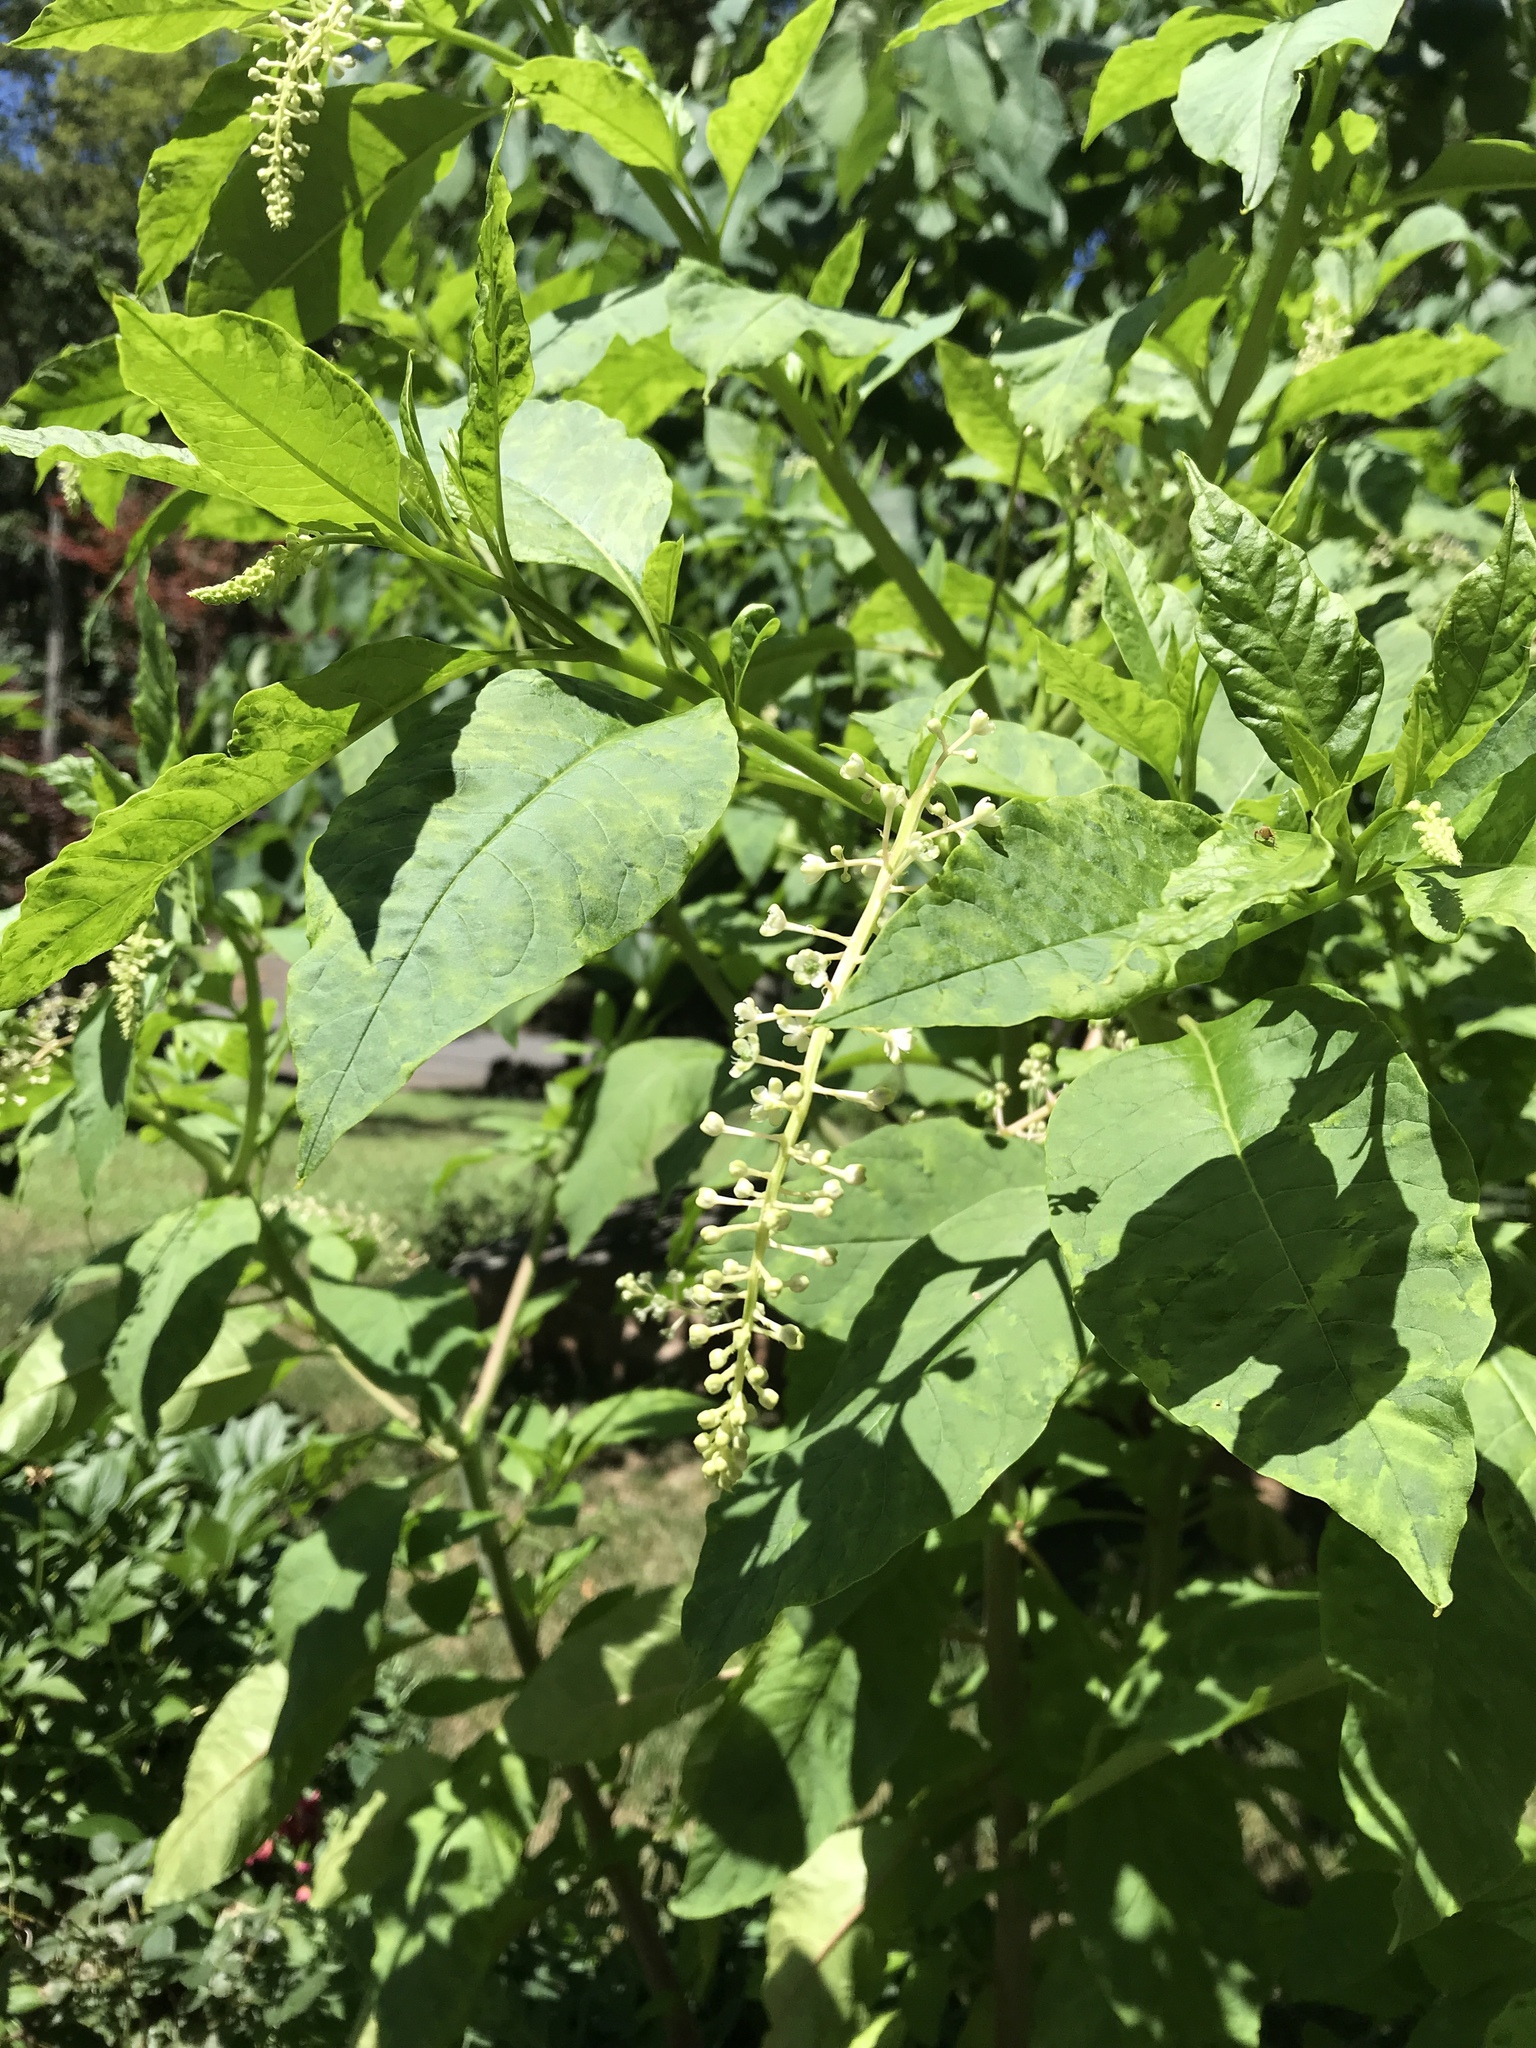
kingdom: Plantae
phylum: Tracheophyta
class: Magnoliopsida
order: Caryophyllales
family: Phytolaccaceae
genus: Phytolacca
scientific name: Phytolacca americana
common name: American pokeweed
